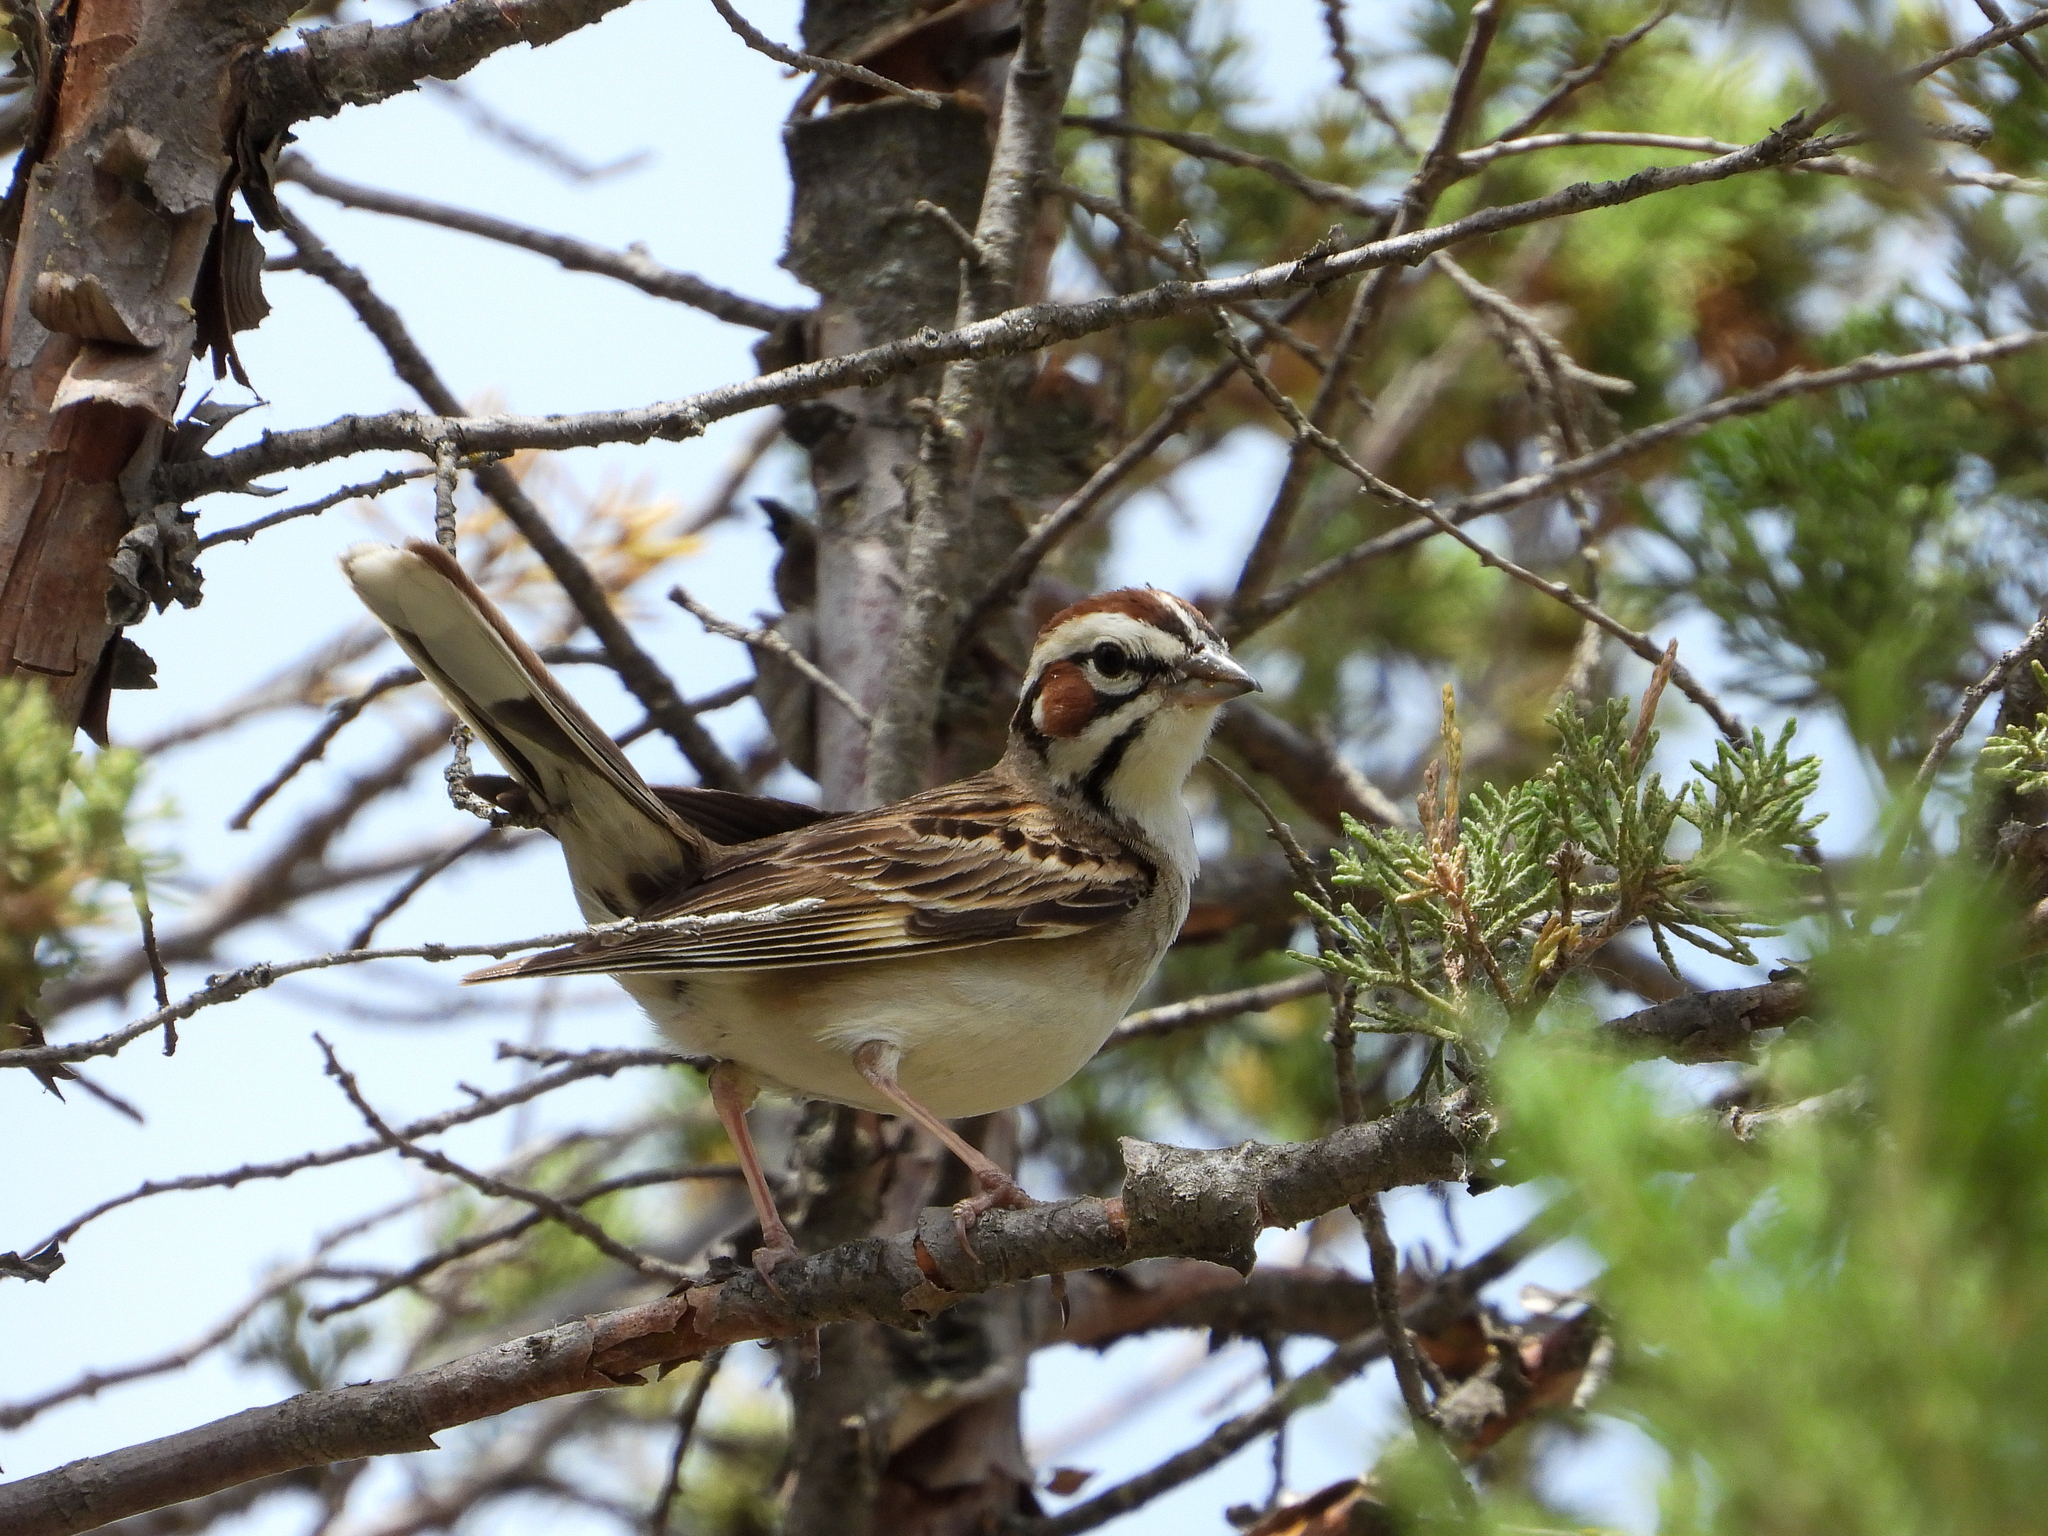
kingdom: Animalia
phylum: Chordata
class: Aves
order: Passeriformes
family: Passerellidae
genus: Chondestes
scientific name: Chondestes grammacus
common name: Lark sparrow
